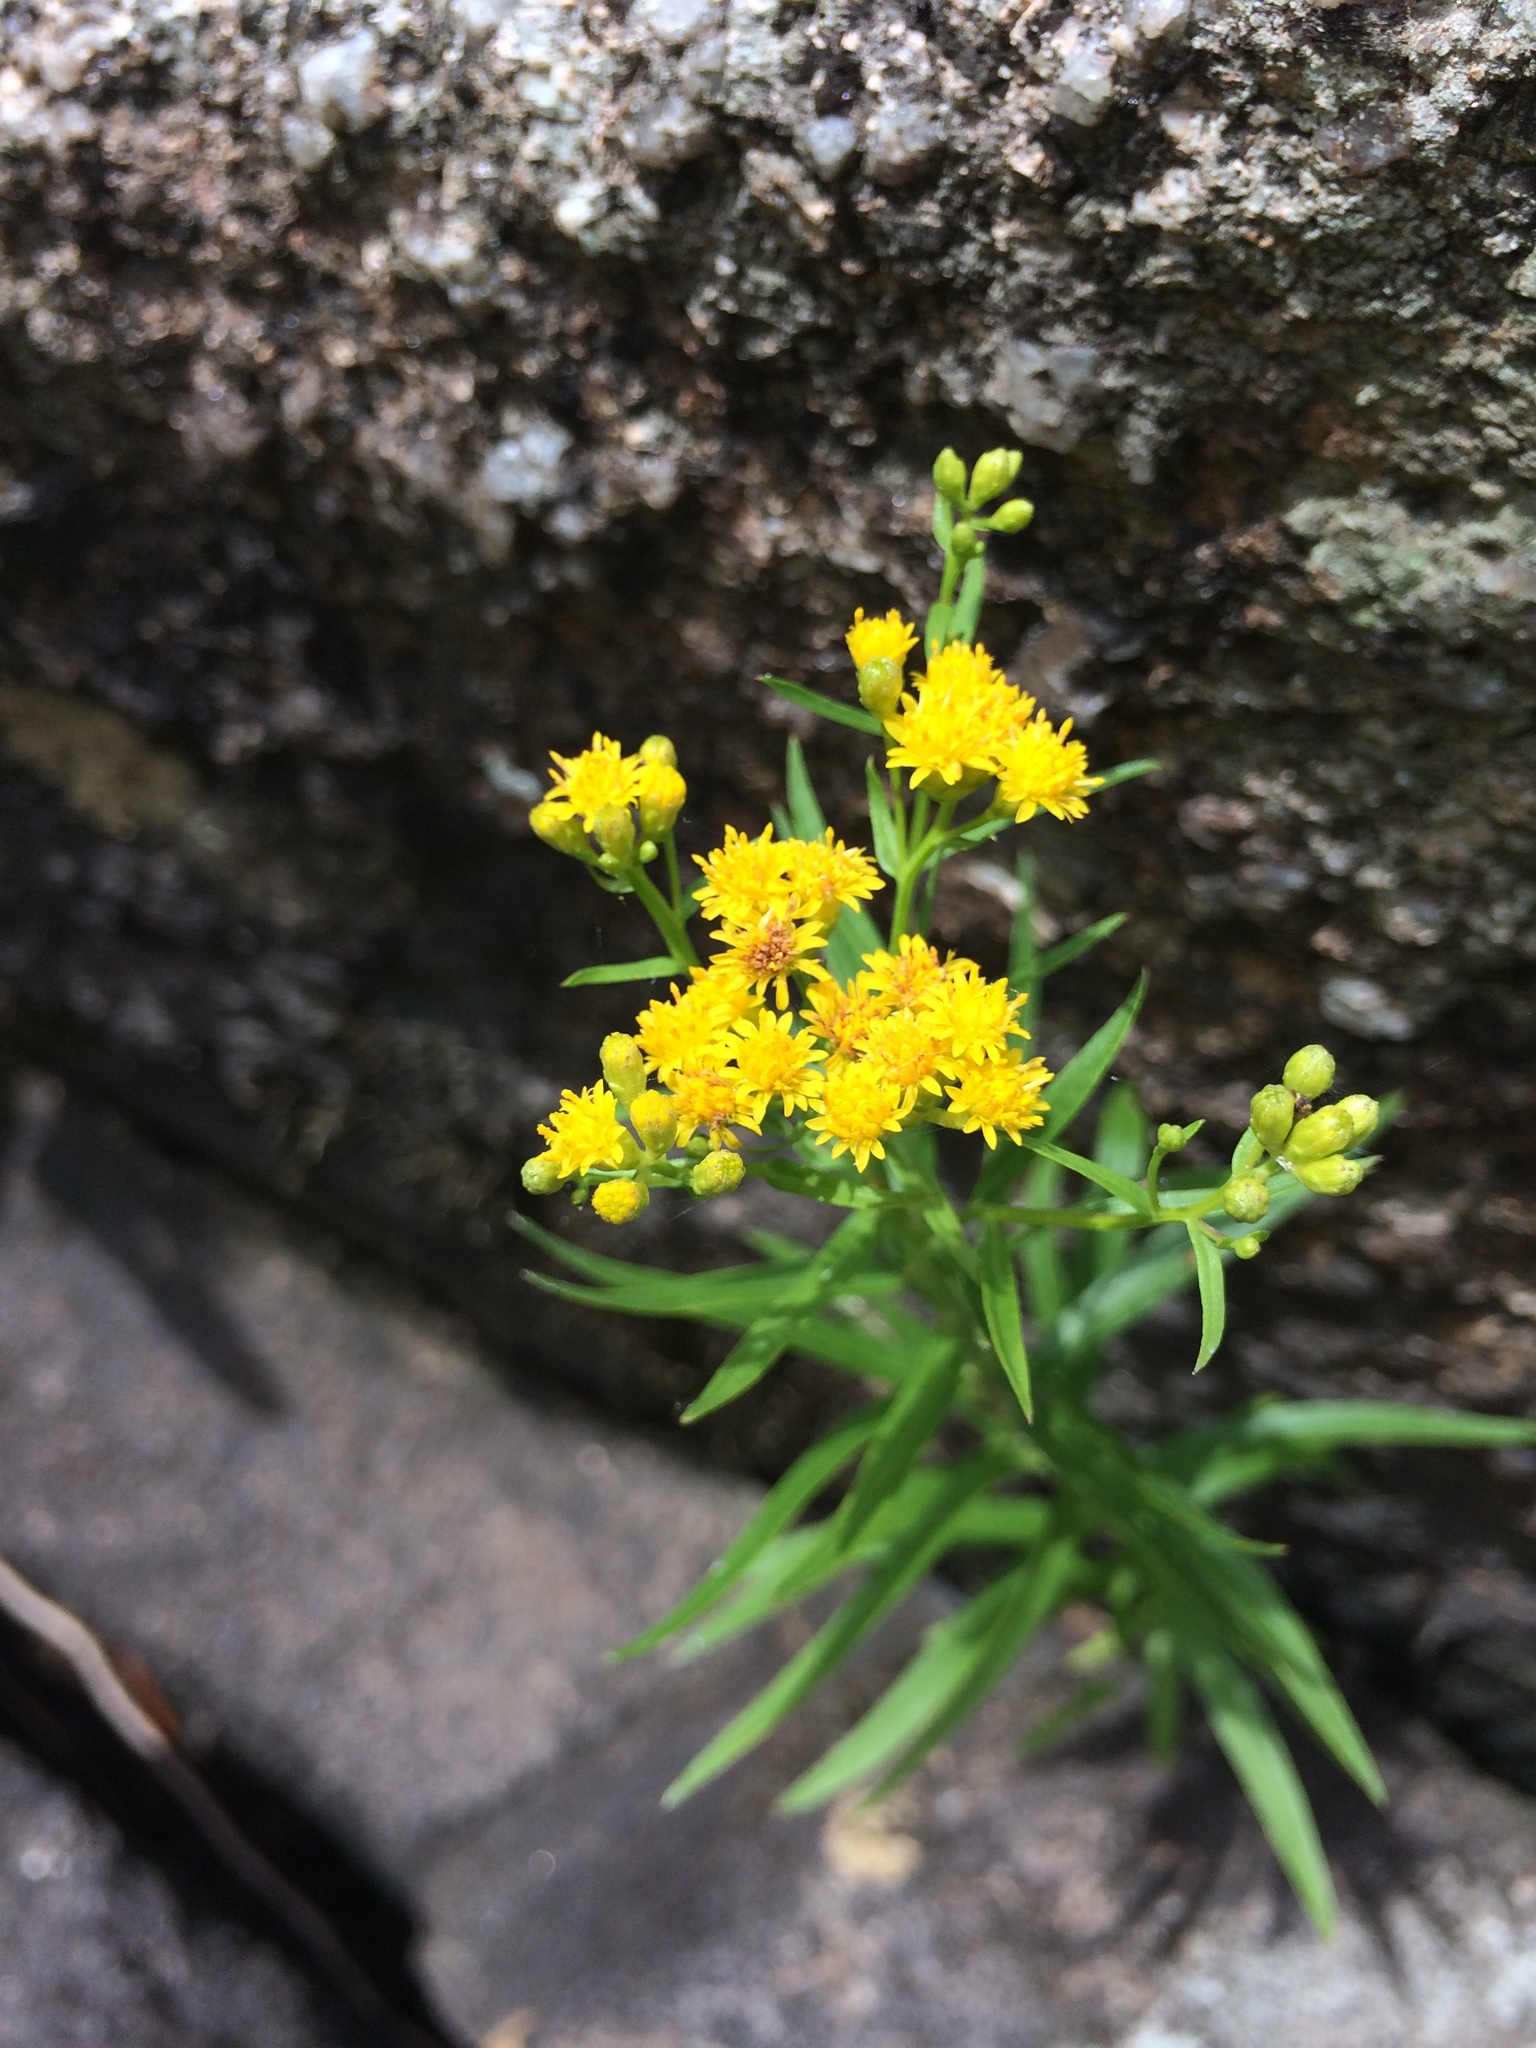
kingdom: Plantae
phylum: Tracheophyta
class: Magnoliopsida
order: Asterales
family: Asteraceae
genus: Euthamia
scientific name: Euthamia graminifolia
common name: Common goldentop
